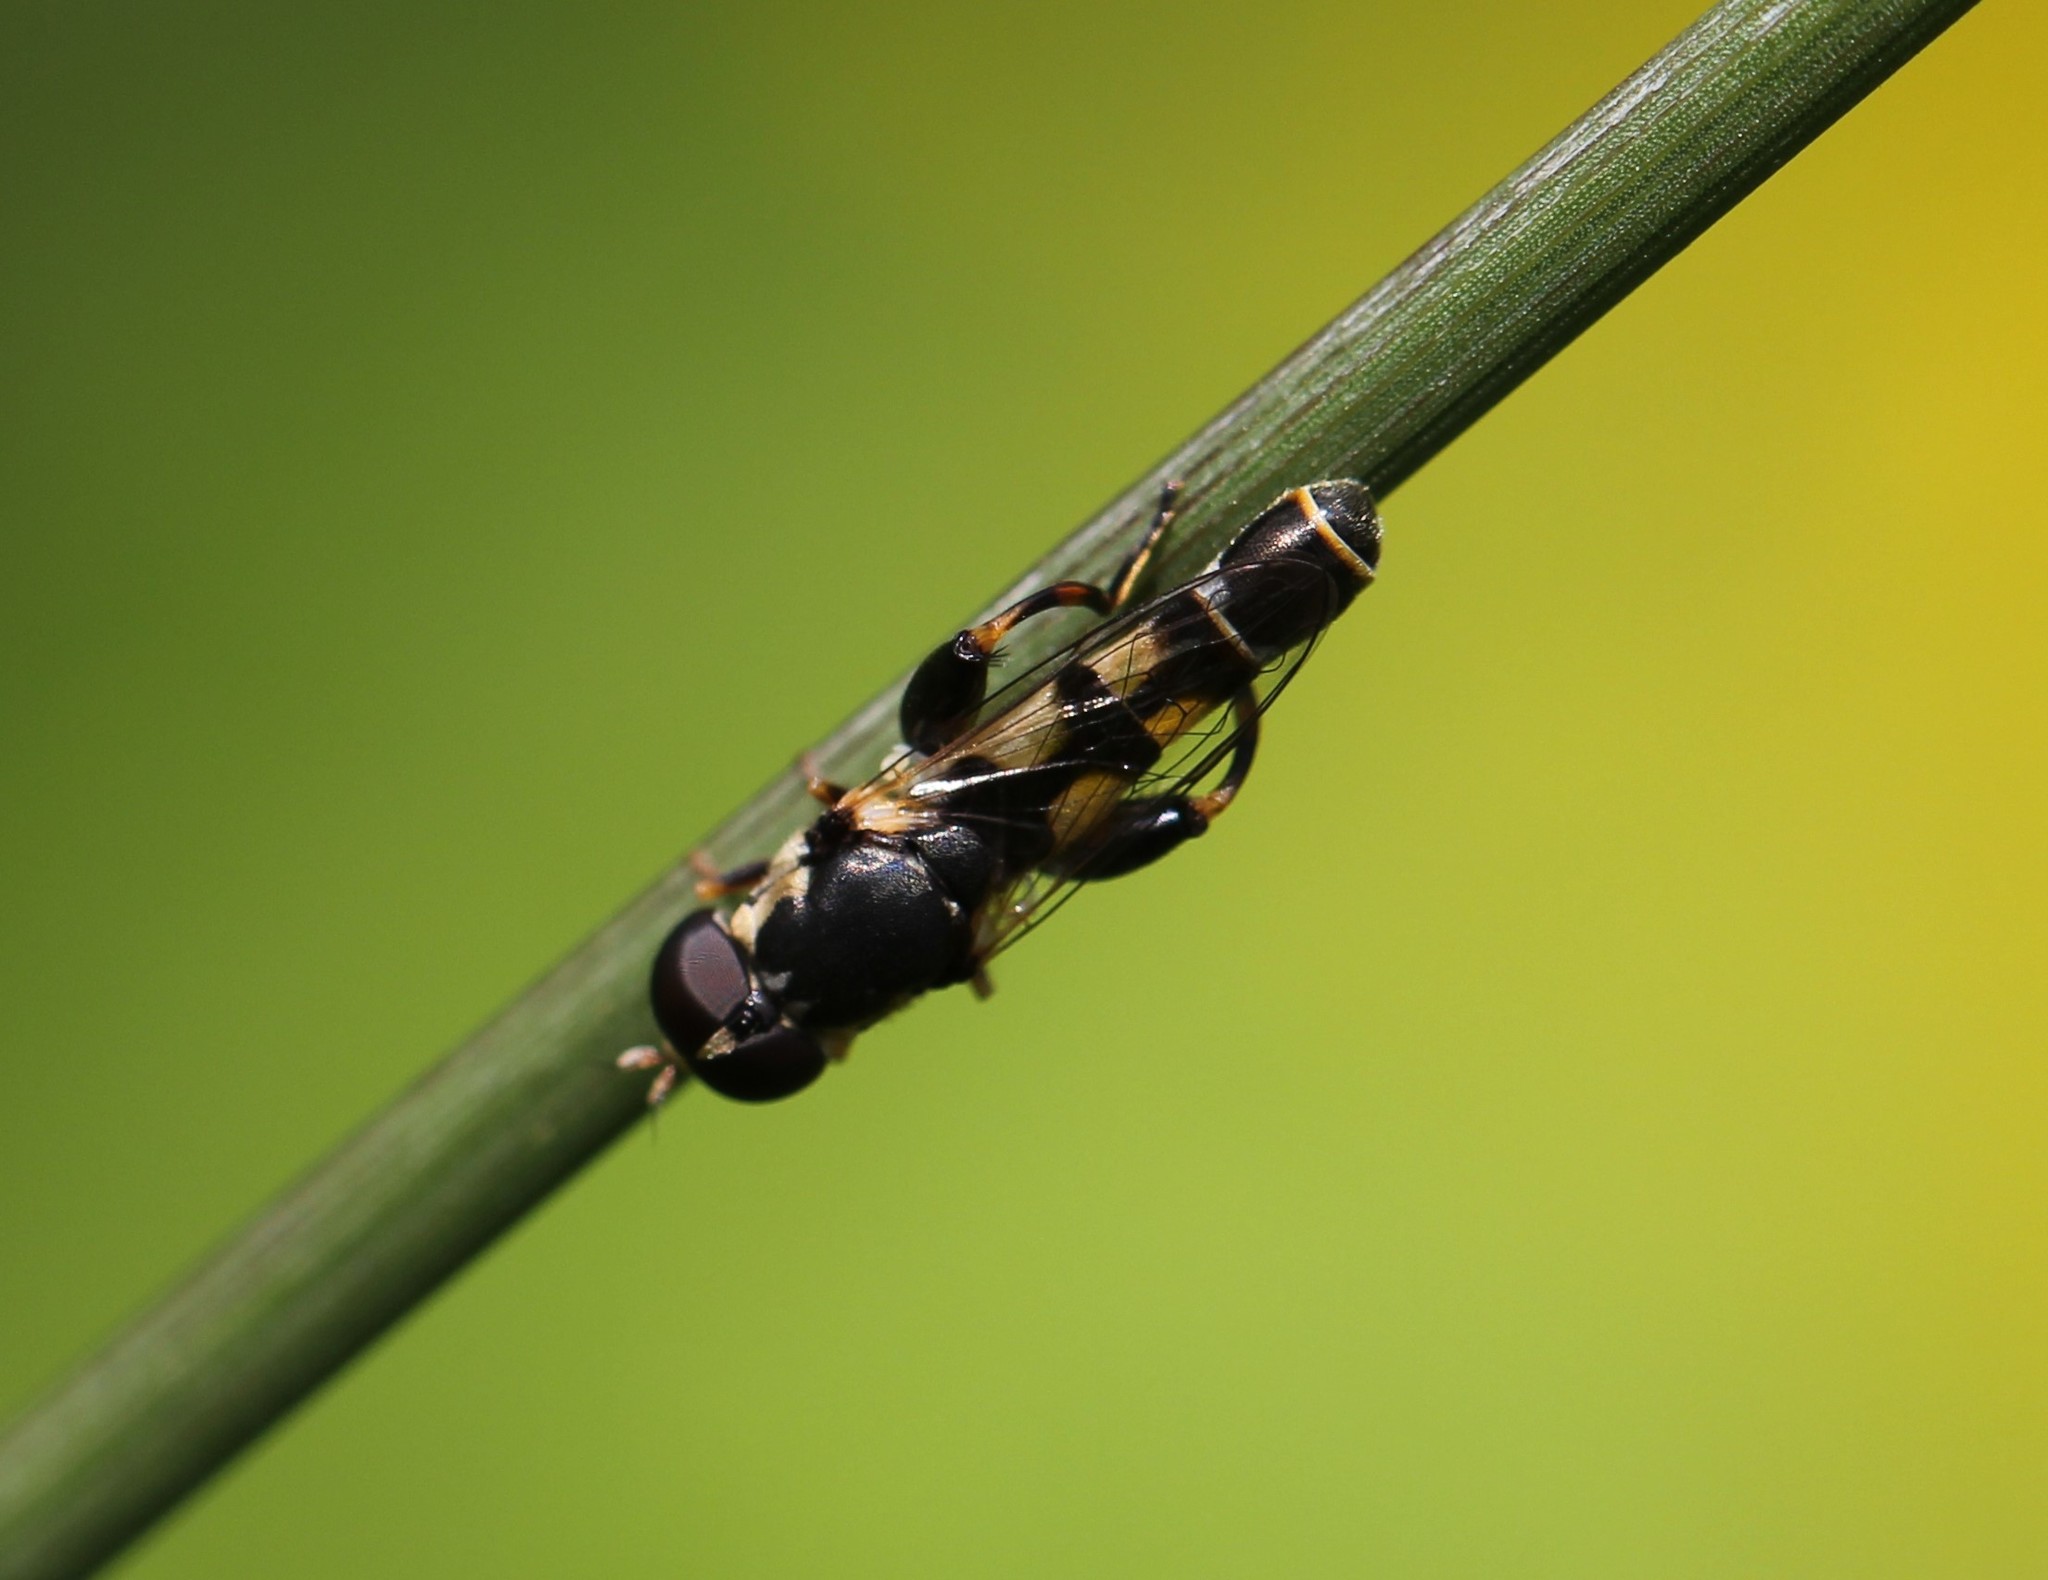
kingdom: Animalia
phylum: Arthropoda
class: Insecta
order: Diptera
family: Syrphidae
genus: Syritta
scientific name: Syritta pipiens
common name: Hover fly
